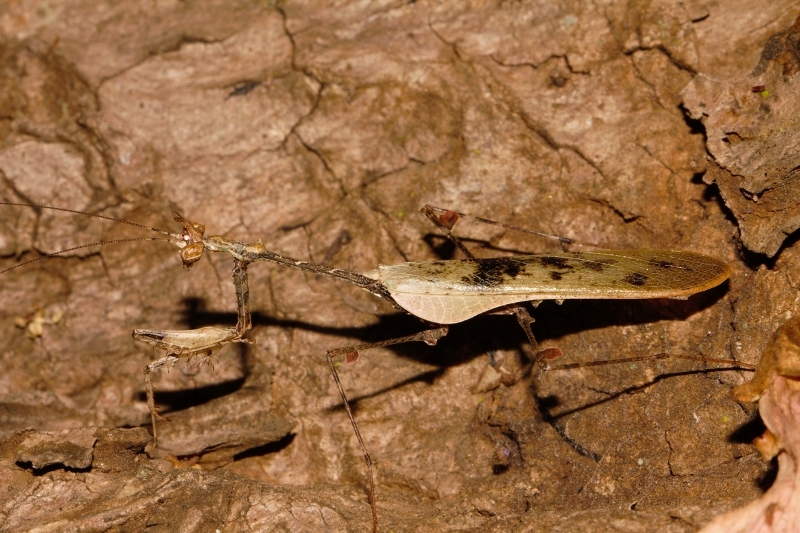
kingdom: Animalia
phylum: Arthropoda
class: Insecta
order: Mantodea
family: Hymenopodidae
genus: Sibylla
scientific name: Sibylla pretiosa
